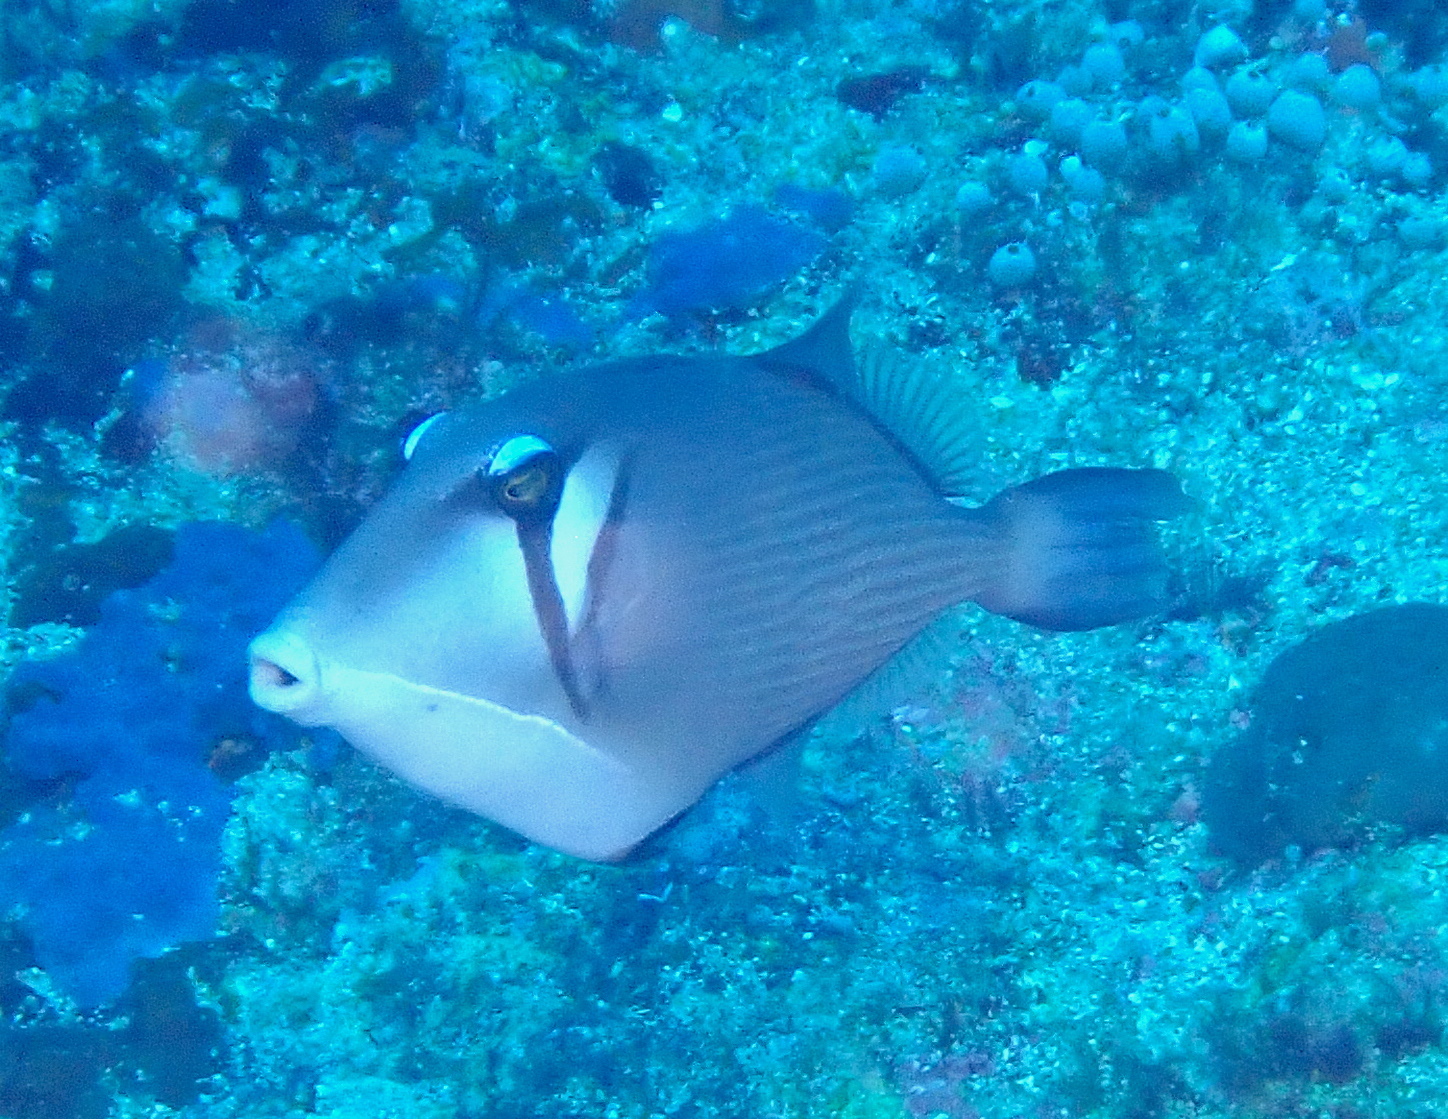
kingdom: Animalia
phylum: Chordata
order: Tetraodontiformes
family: Balistidae
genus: Sufflamen
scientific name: Sufflamen bursa
